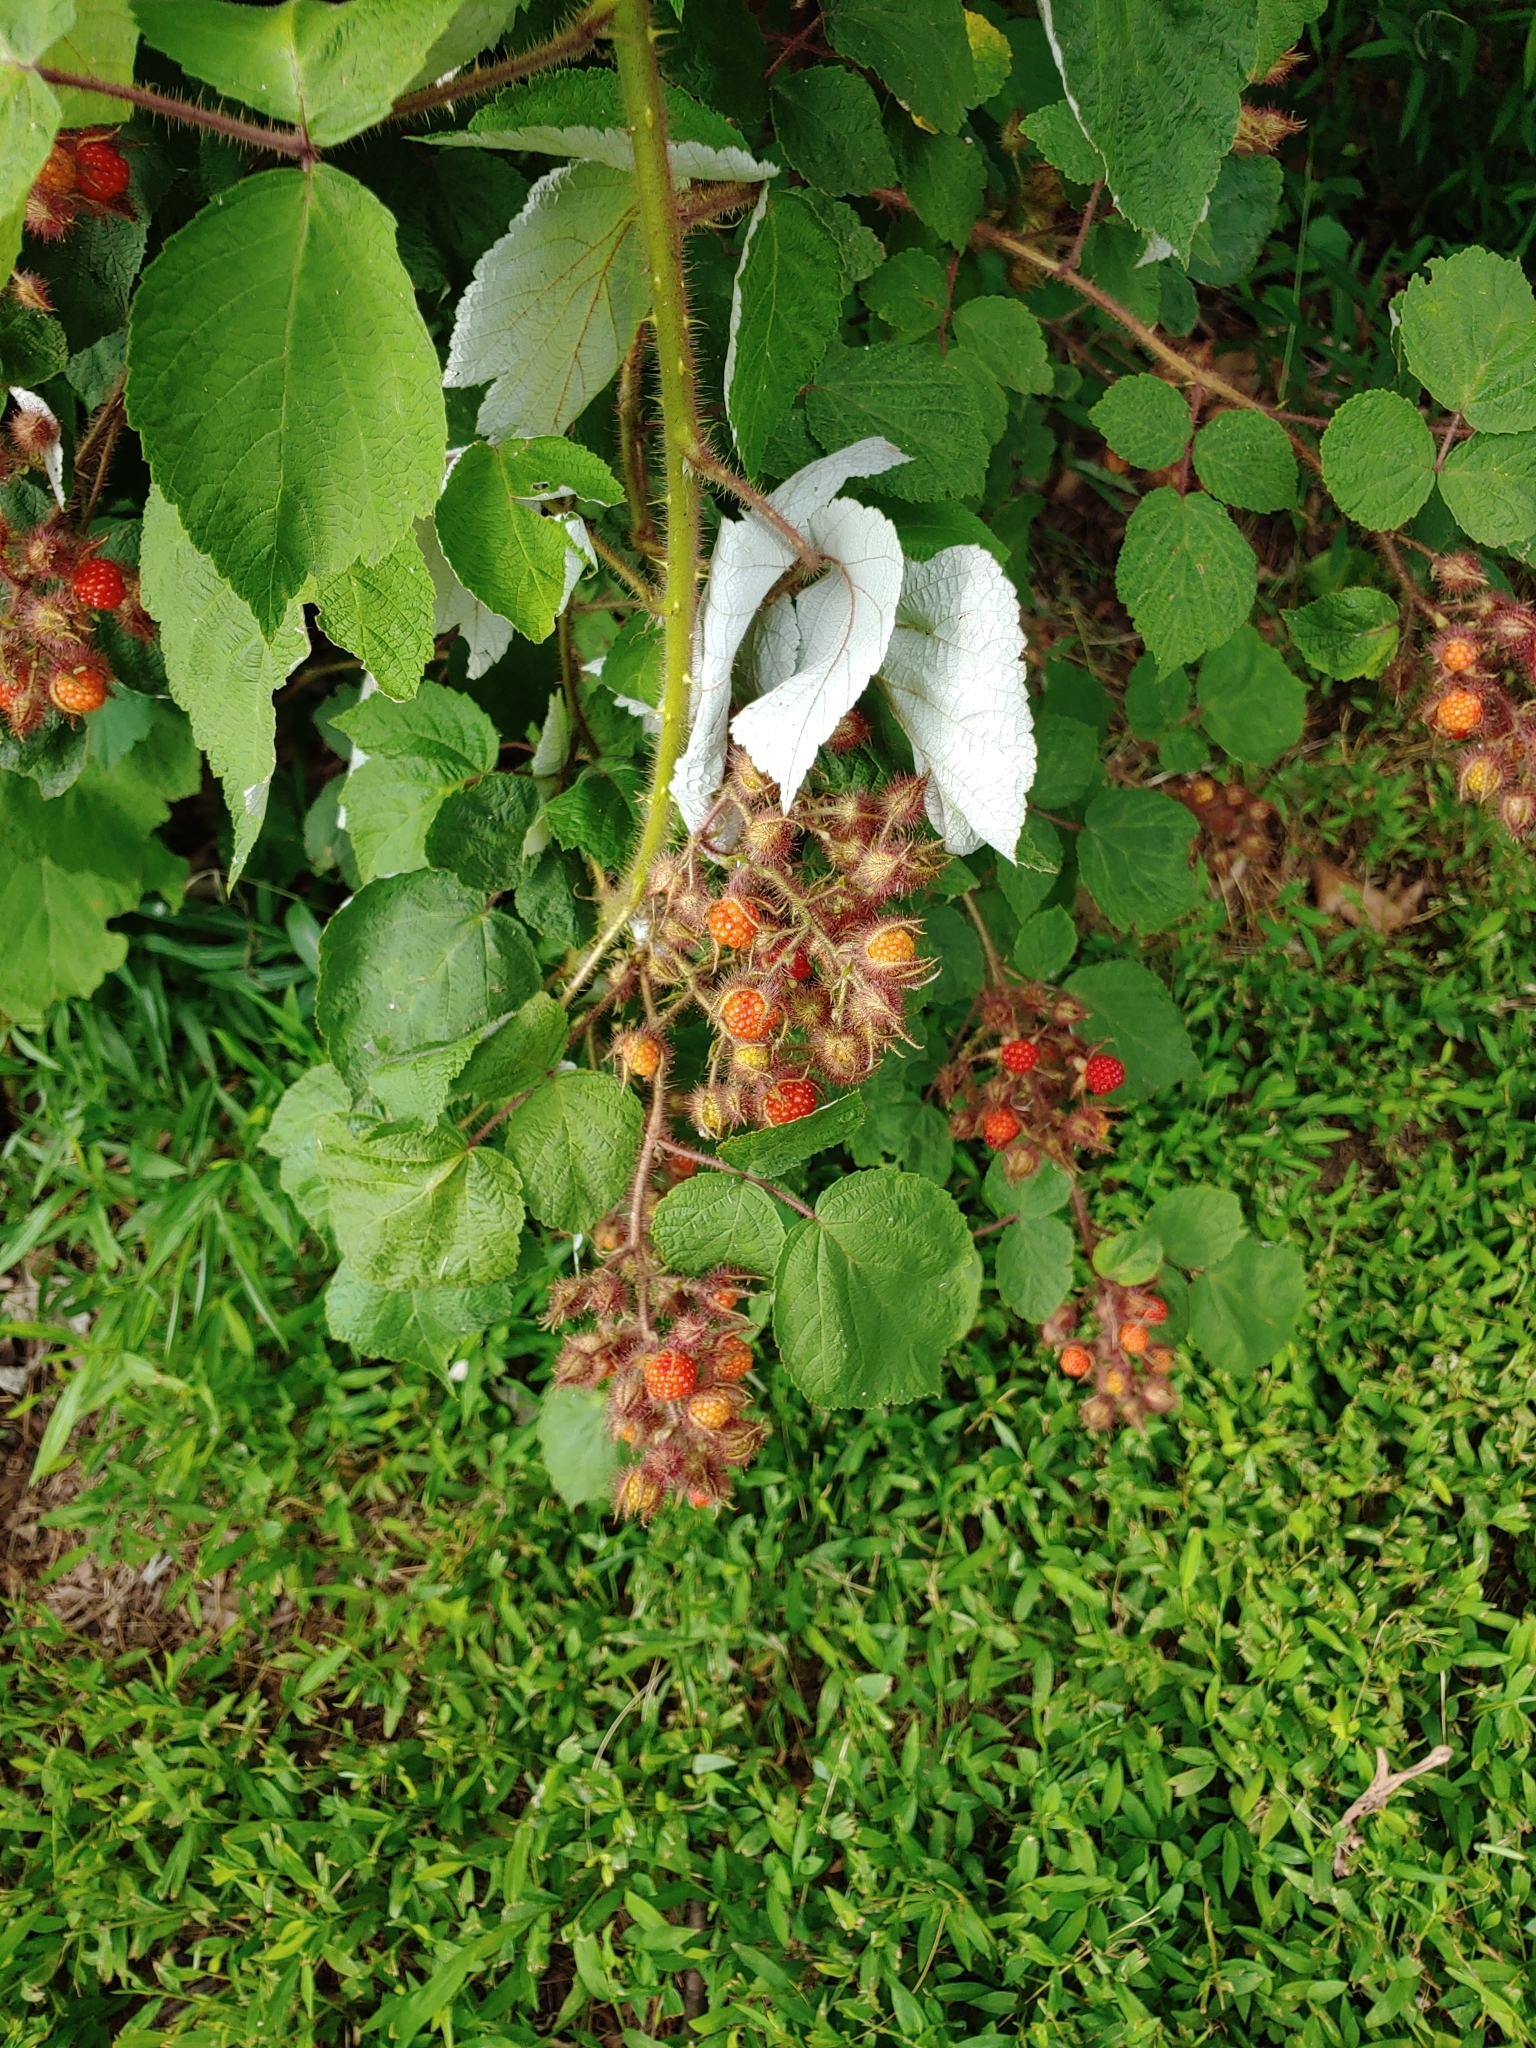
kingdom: Plantae
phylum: Tracheophyta
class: Magnoliopsida
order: Rosales
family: Rosaceae
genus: Rubus
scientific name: Rubus phoenicolasius
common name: Japanese wineberry
